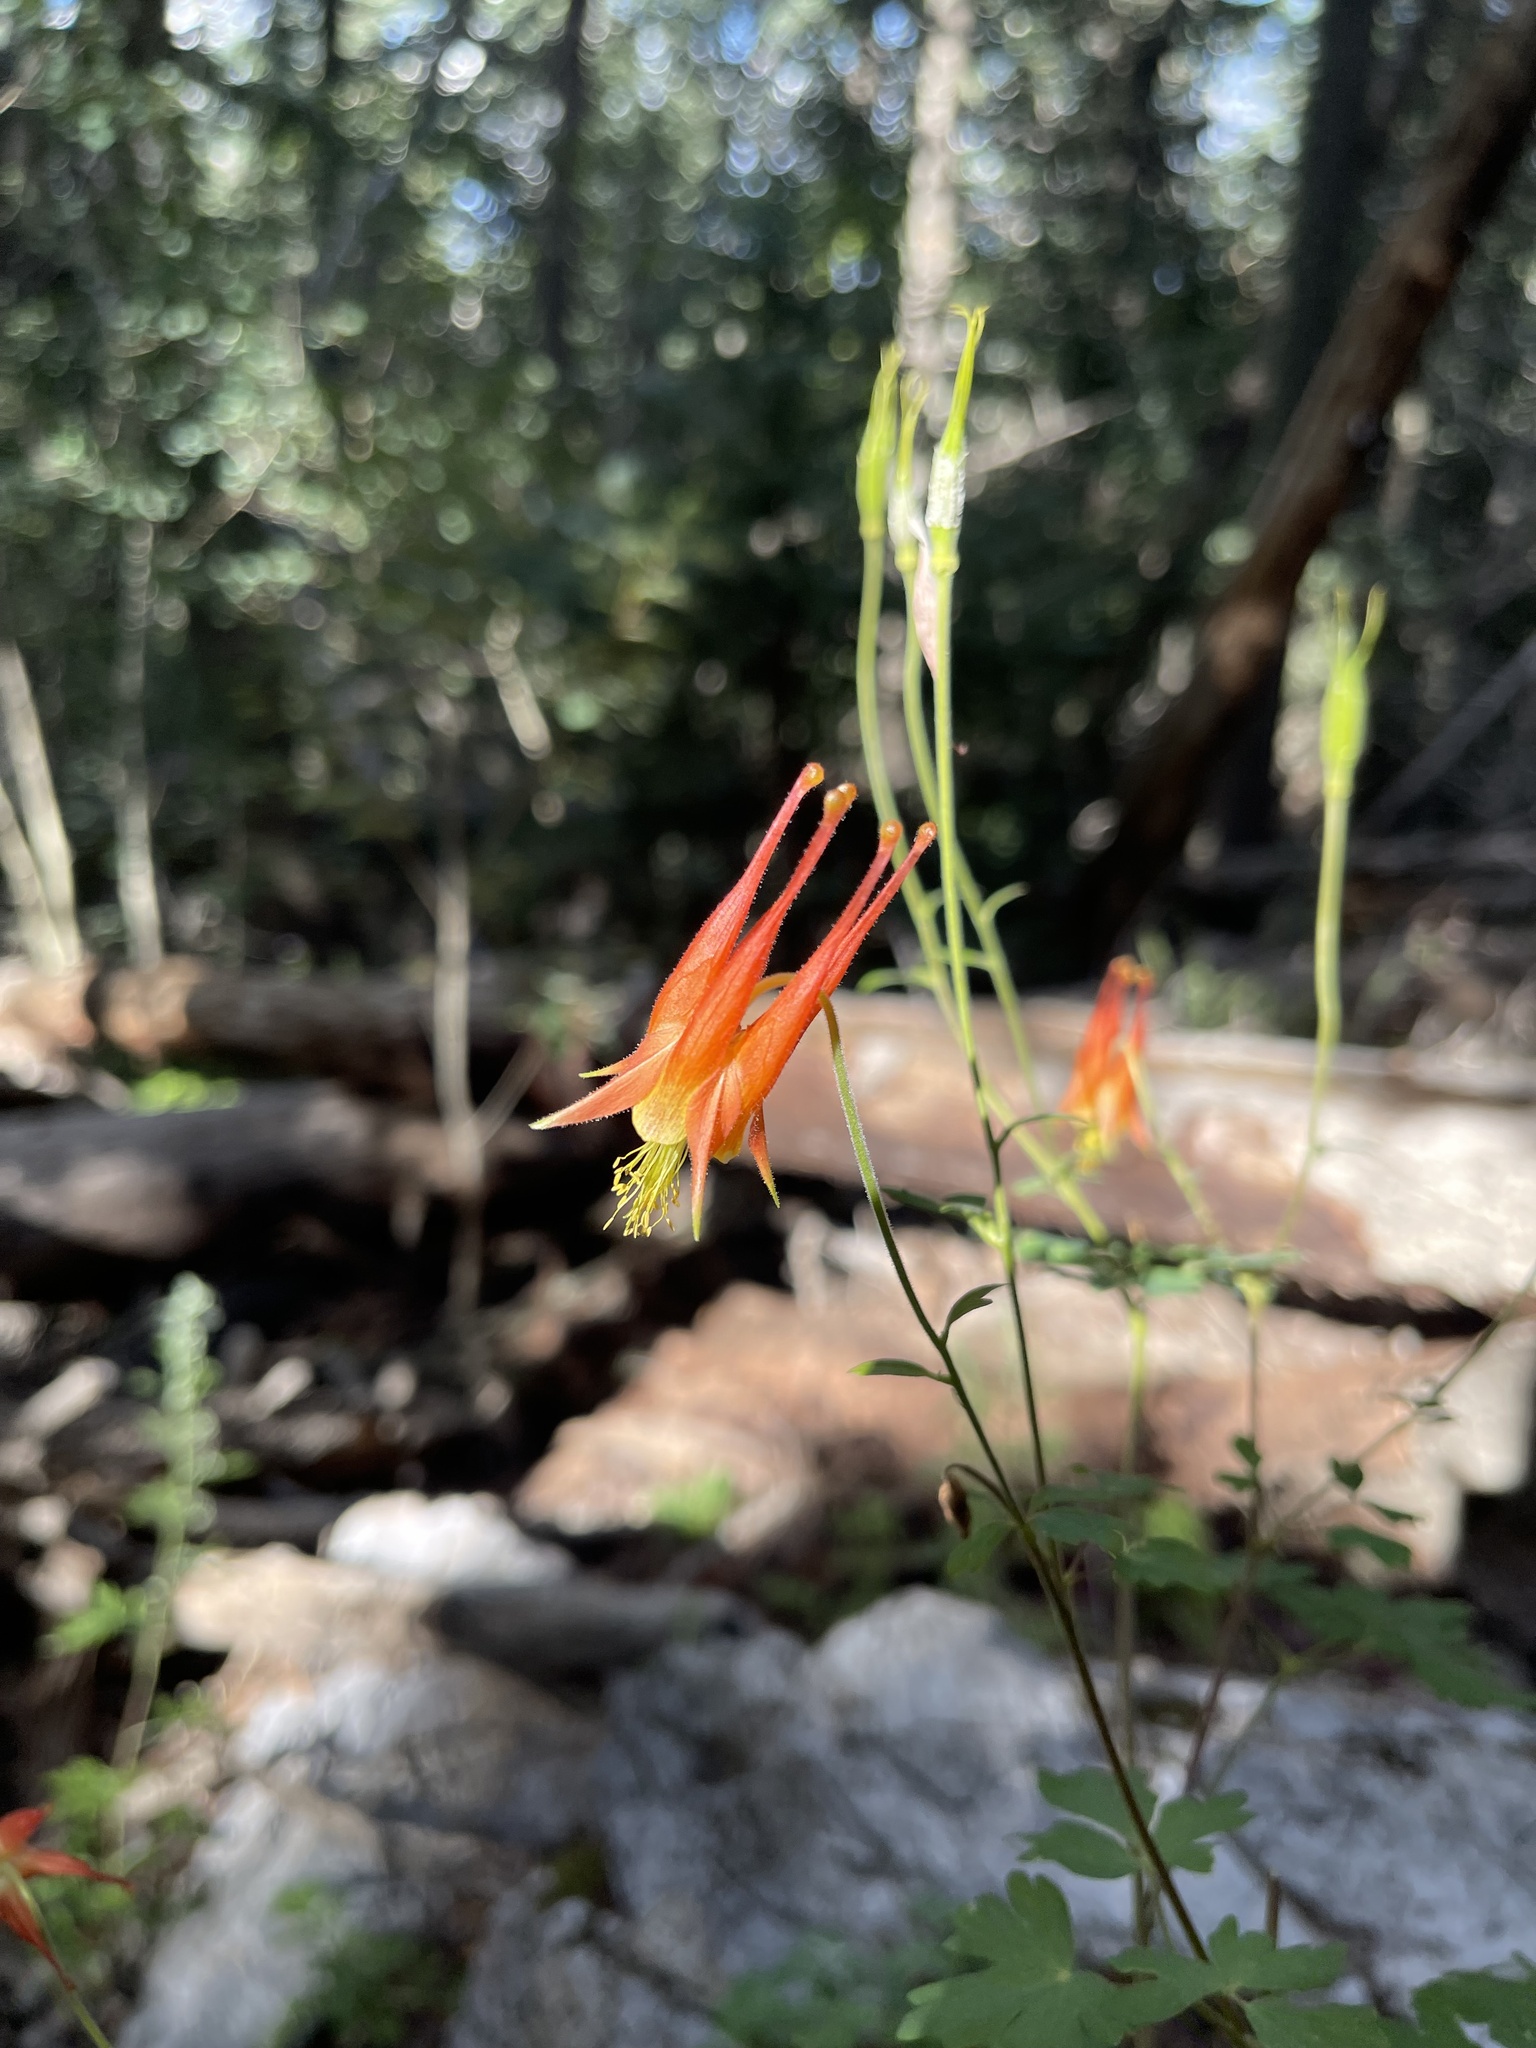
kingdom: Plantae
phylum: Tracheophyta
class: Magnoliopsida
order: Ranunculales
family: Ranunculaceae
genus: Aquilegia
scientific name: Aquilegia desertorum
